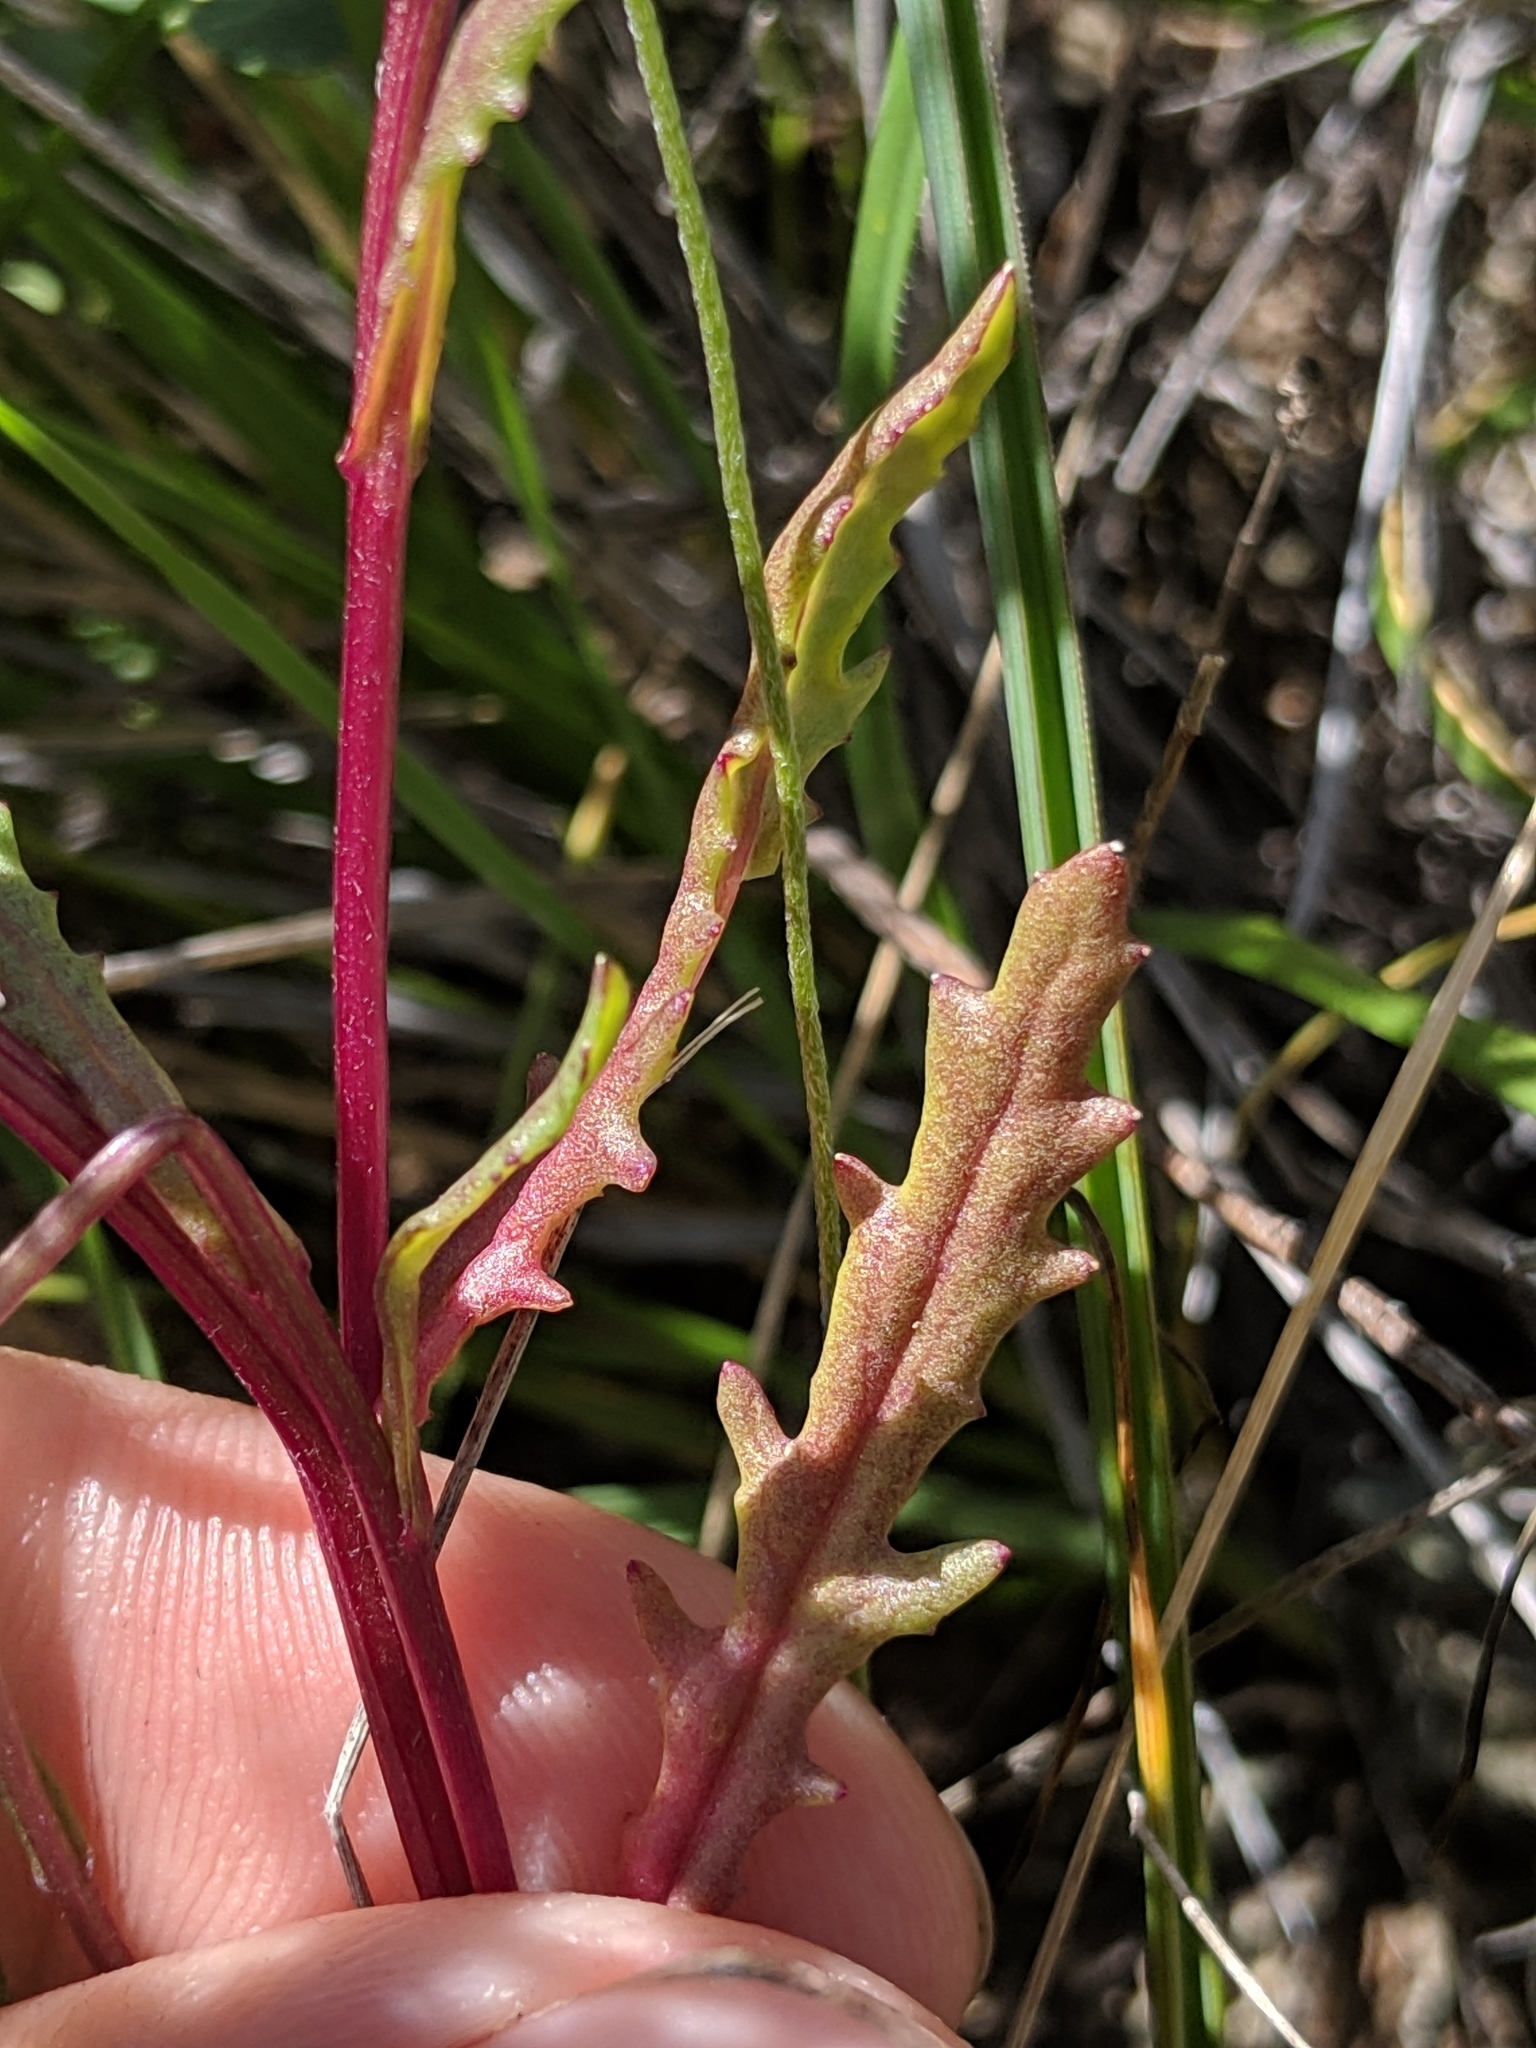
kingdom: Plantae
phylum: Tracheophyta
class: Magnoliopsida
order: Asterales
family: Asteraceae
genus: Senecio
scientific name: Senecio aphanactis
